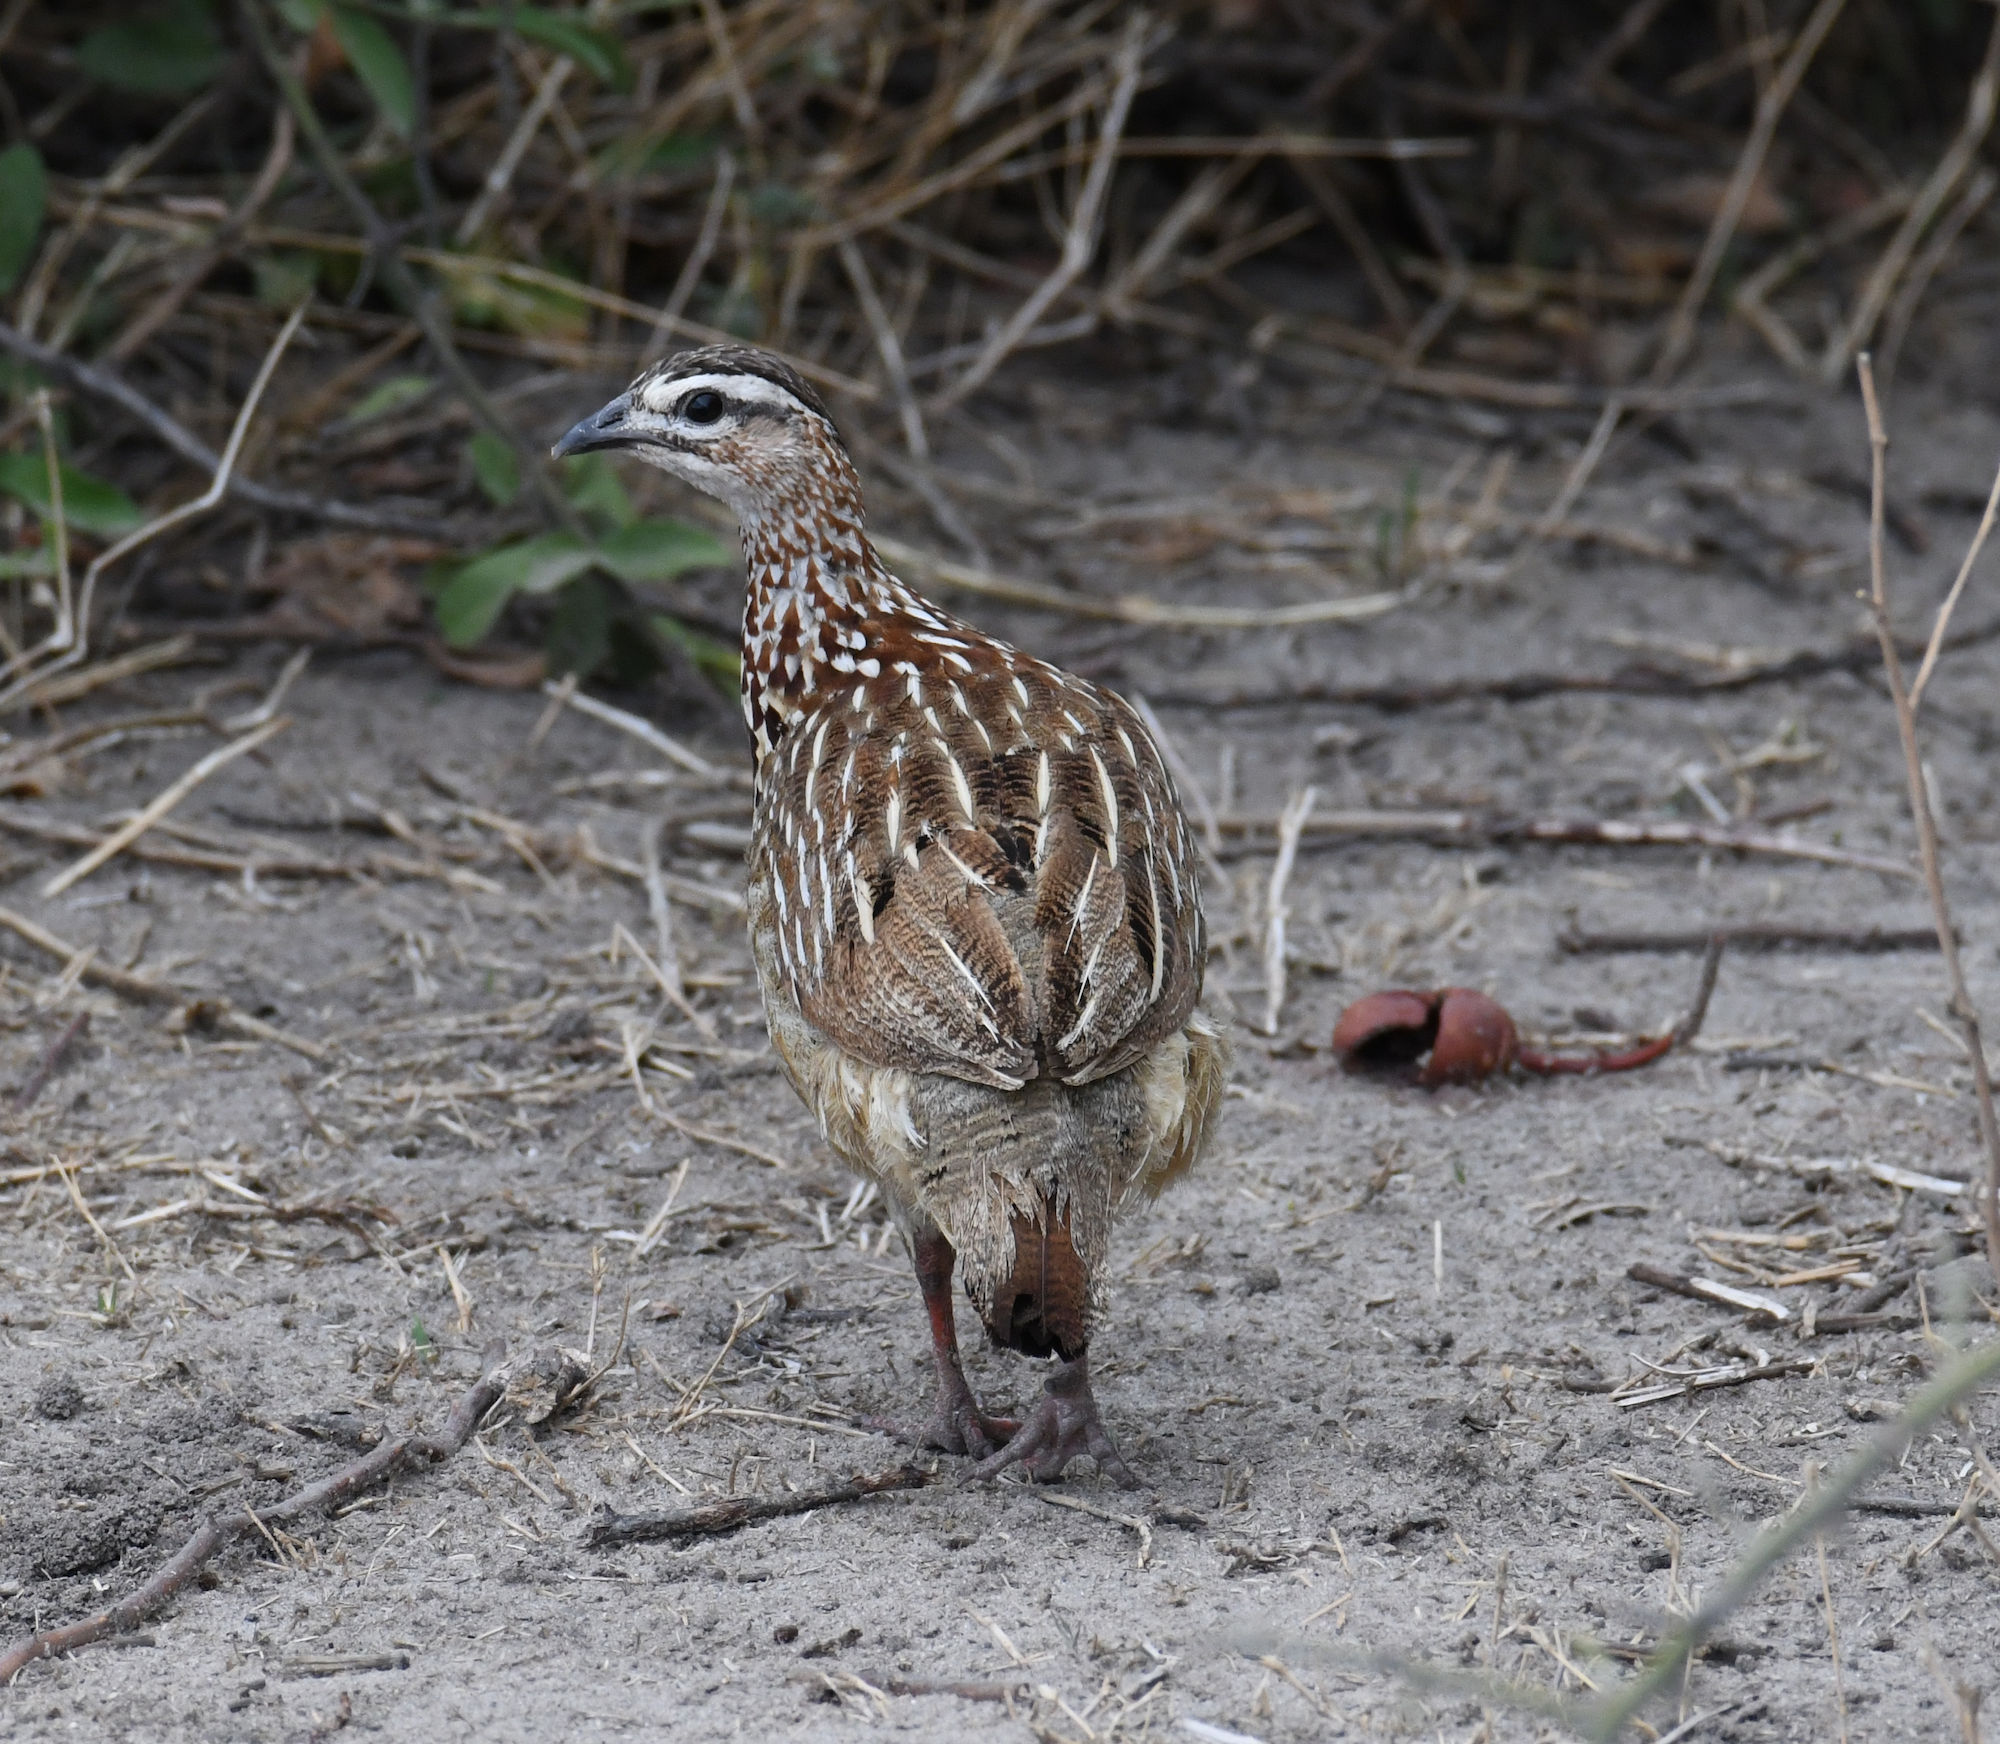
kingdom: Animalia
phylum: Chordata
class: Aves
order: Galliformes
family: Phasianidae
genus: Ortygornis
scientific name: Ortygornis sephaena
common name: Crested francolin
